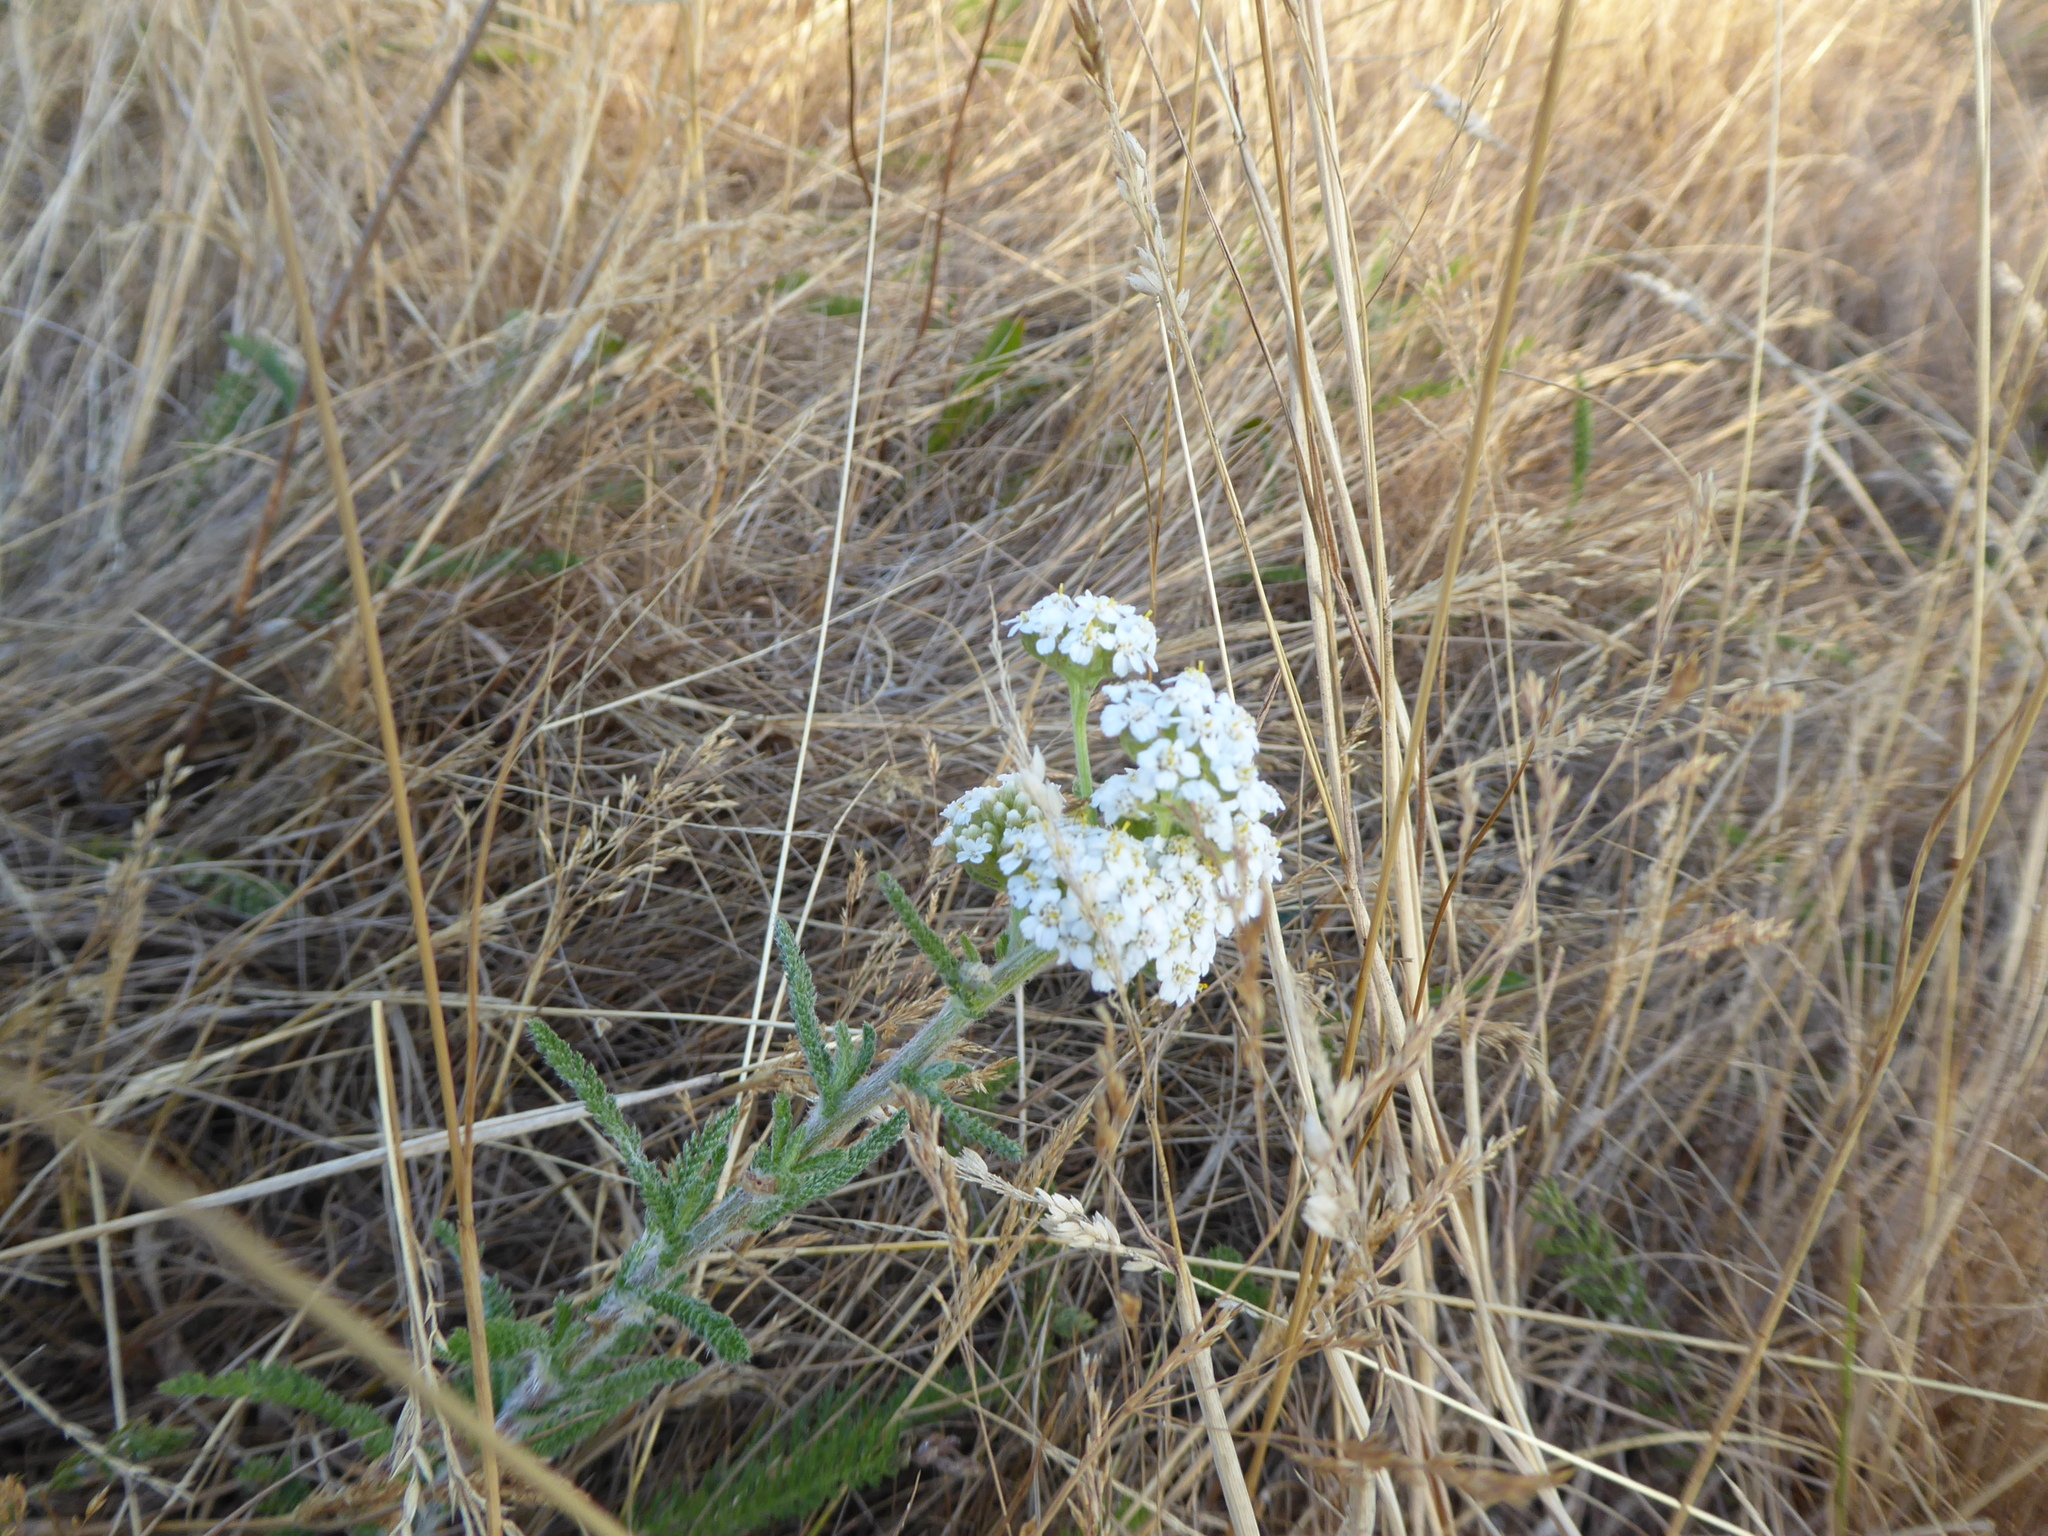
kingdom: Plantae
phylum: Tracheophyta
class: Magnoliopsida
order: Asterales
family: Asteraceae
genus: Achillea
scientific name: Achillea millefolium
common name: Yarrow
